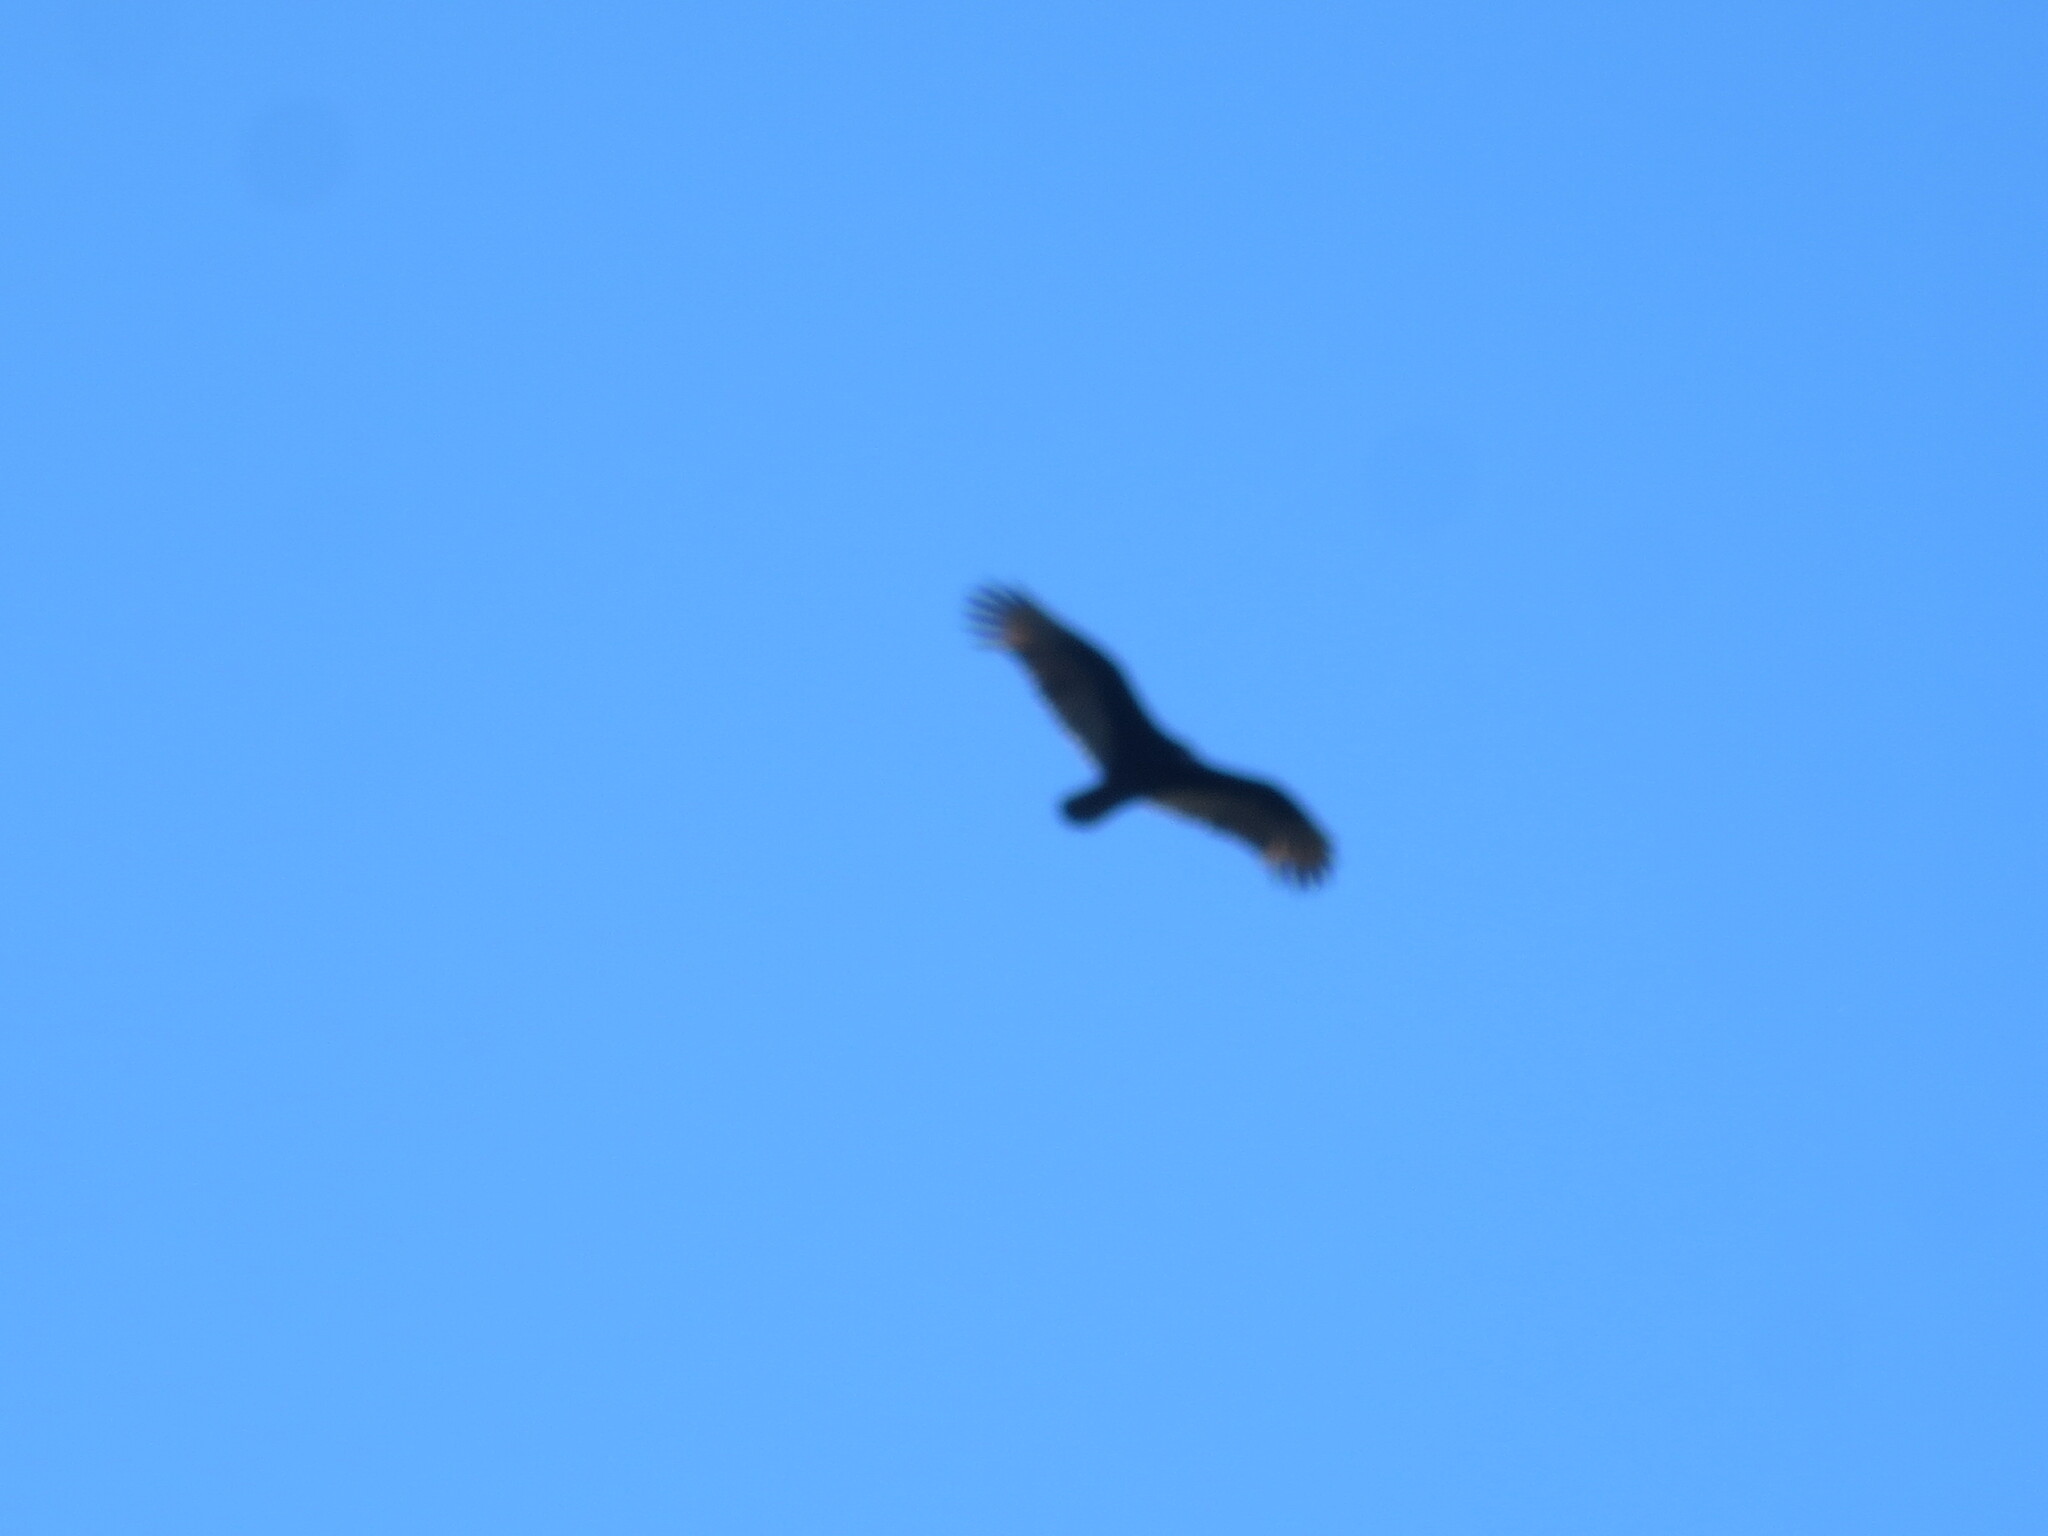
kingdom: Animalia
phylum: Chordata
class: Aves
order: Accipitriformes
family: Cathartidae
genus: Cathartes
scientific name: Cathartes aura
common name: Turkey vulture
